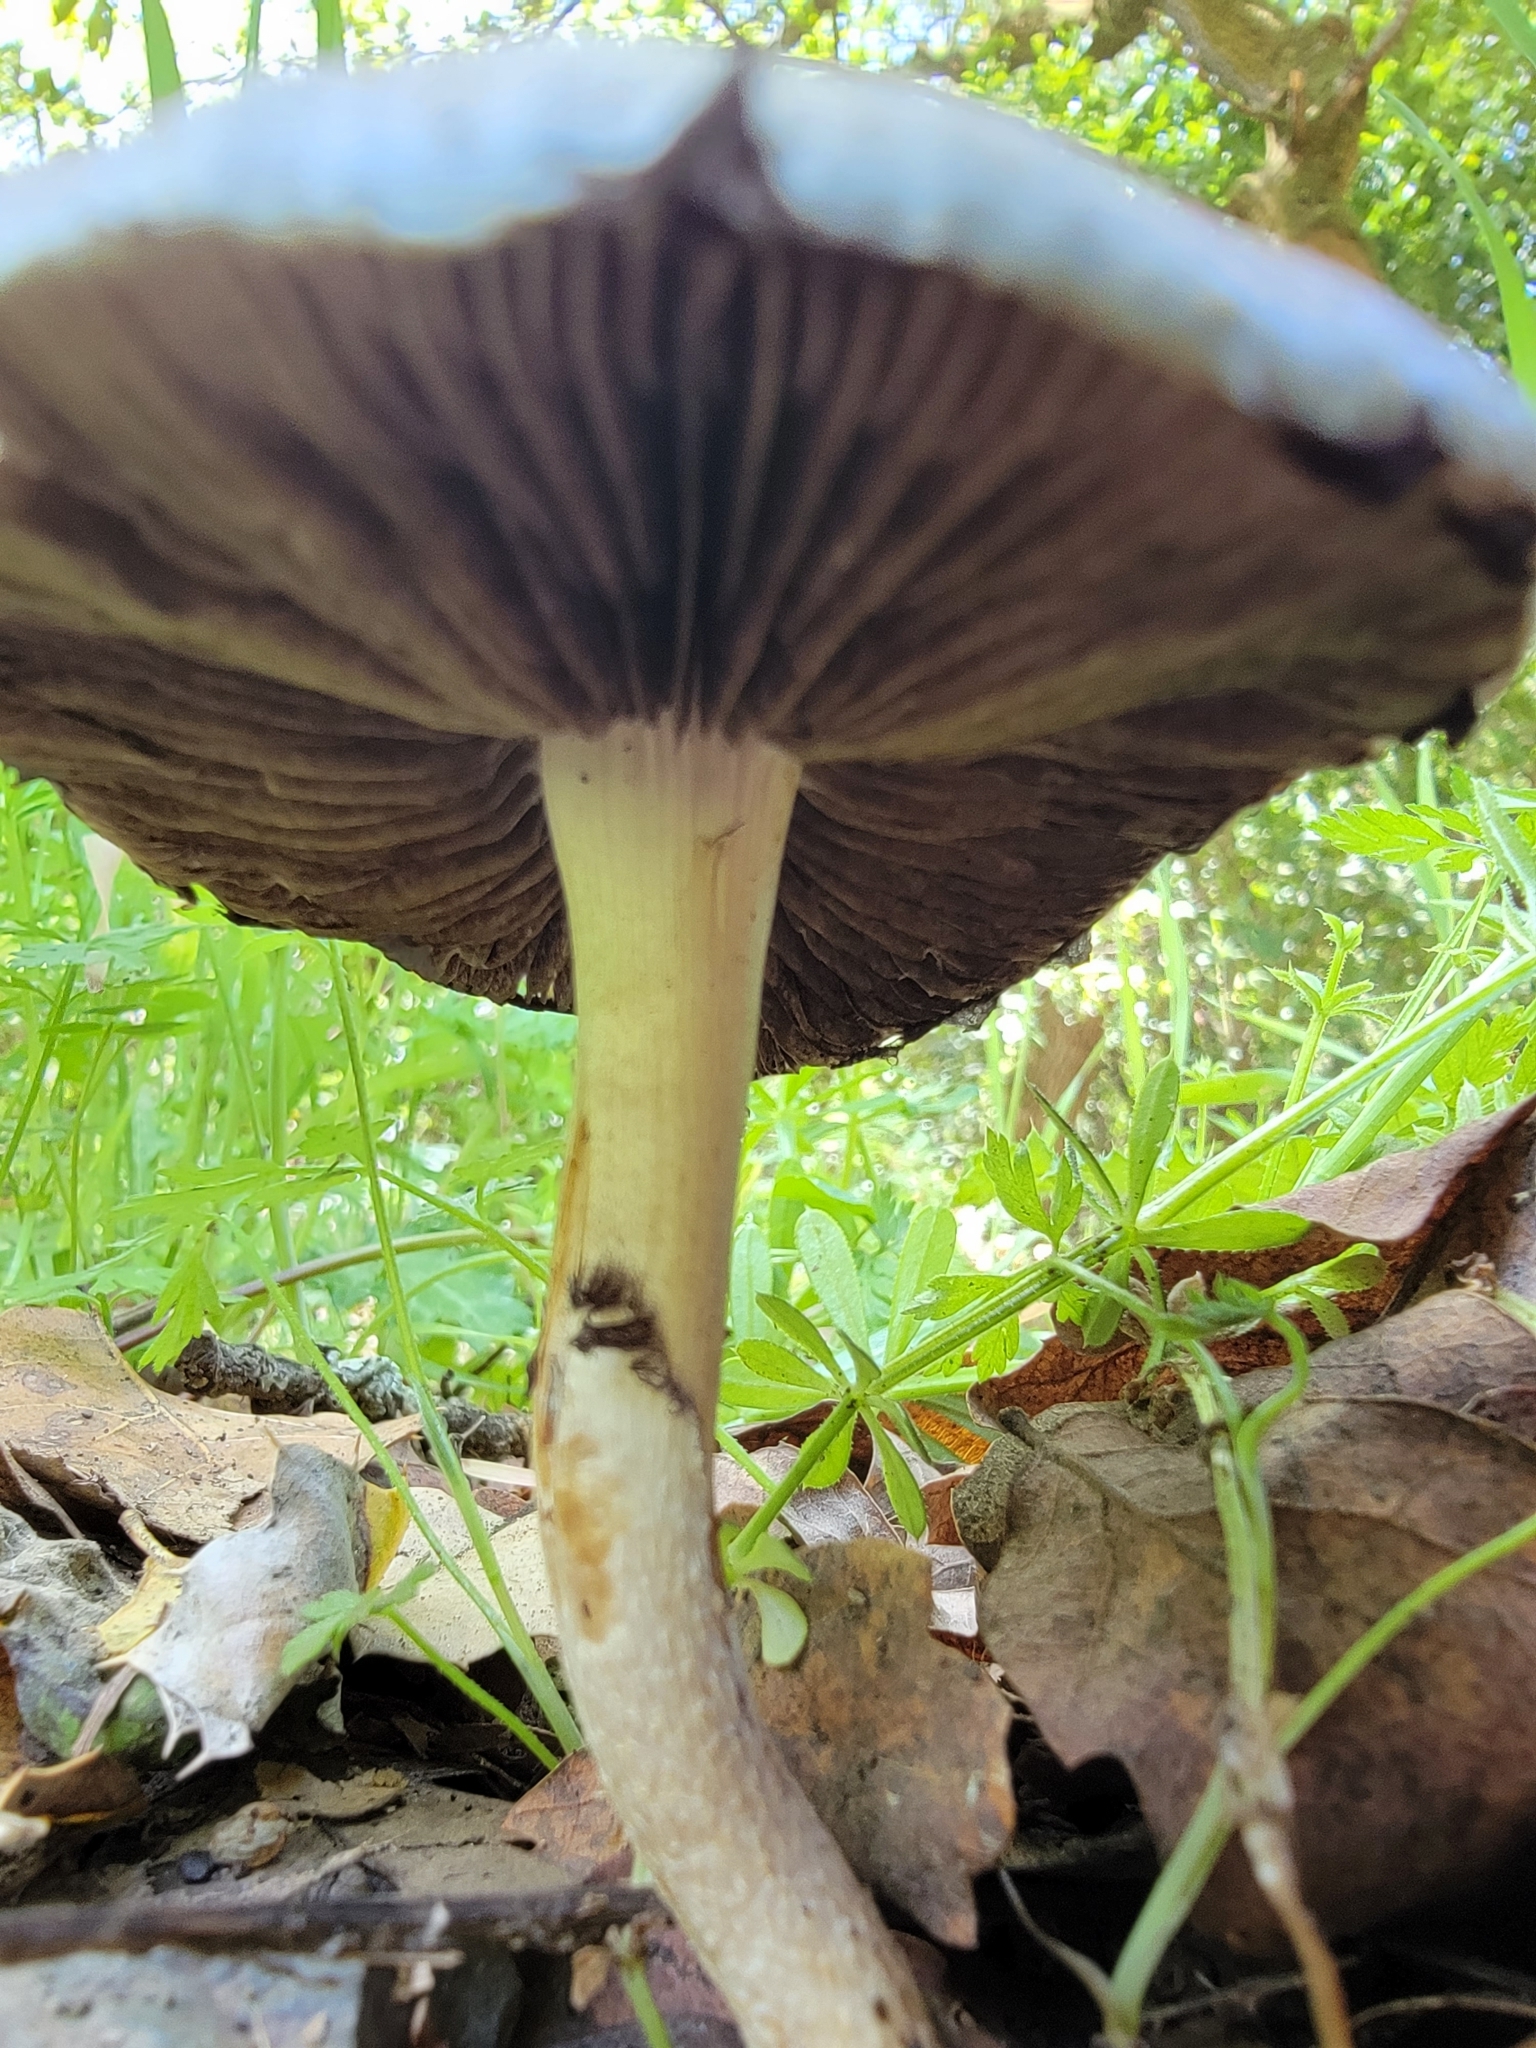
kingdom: Fungi
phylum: Basidiomycota
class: Agaricomycetes
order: Agaricales
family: Strophariaceae
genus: Leratiomyces
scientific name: Leratiomyces percevalii
